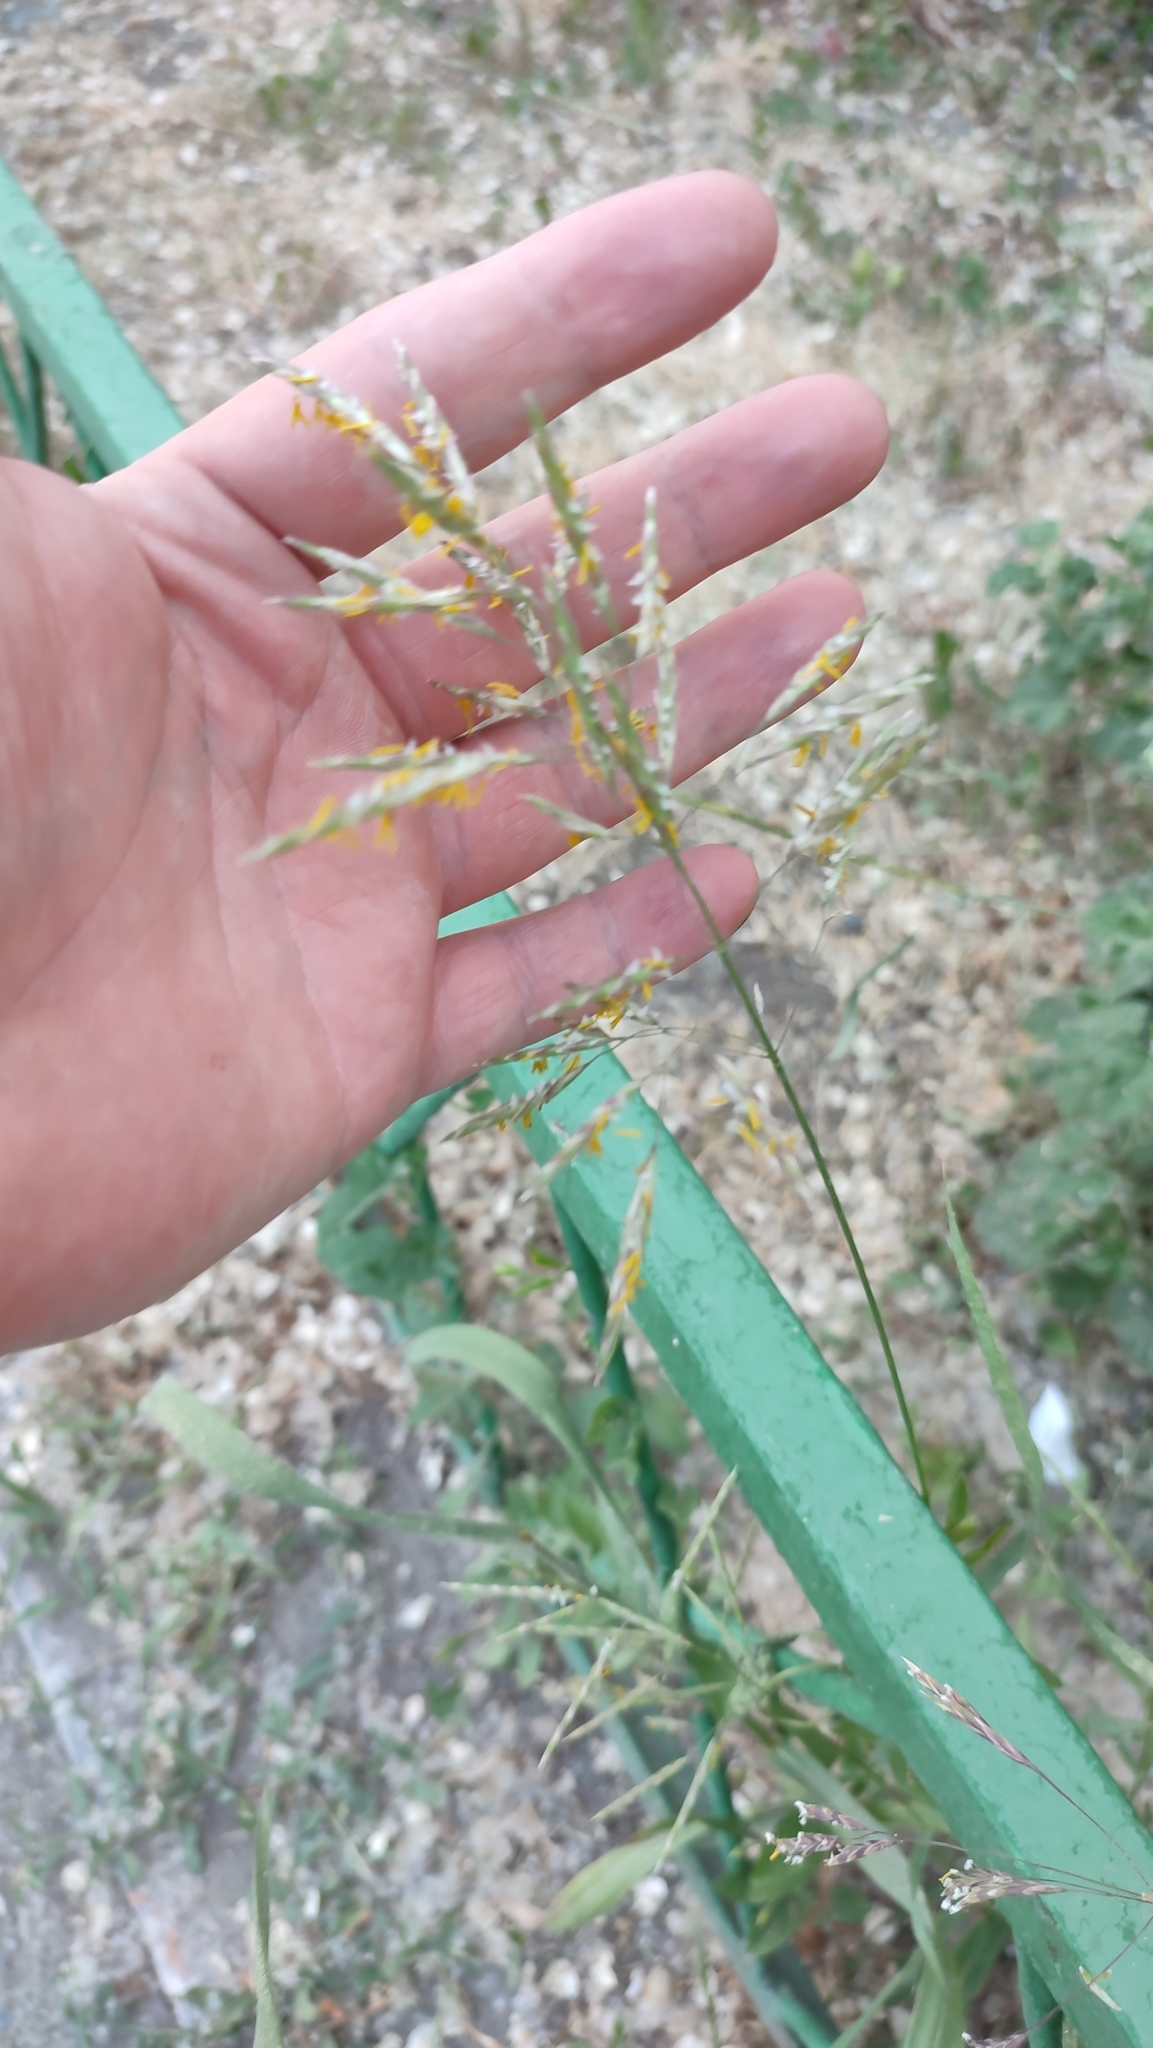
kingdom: Plantae
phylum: Tracheophyta
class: Liliopsida
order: Poales
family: Poaceae
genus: Bromus
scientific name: Bromus inermis
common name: Smooth brome
